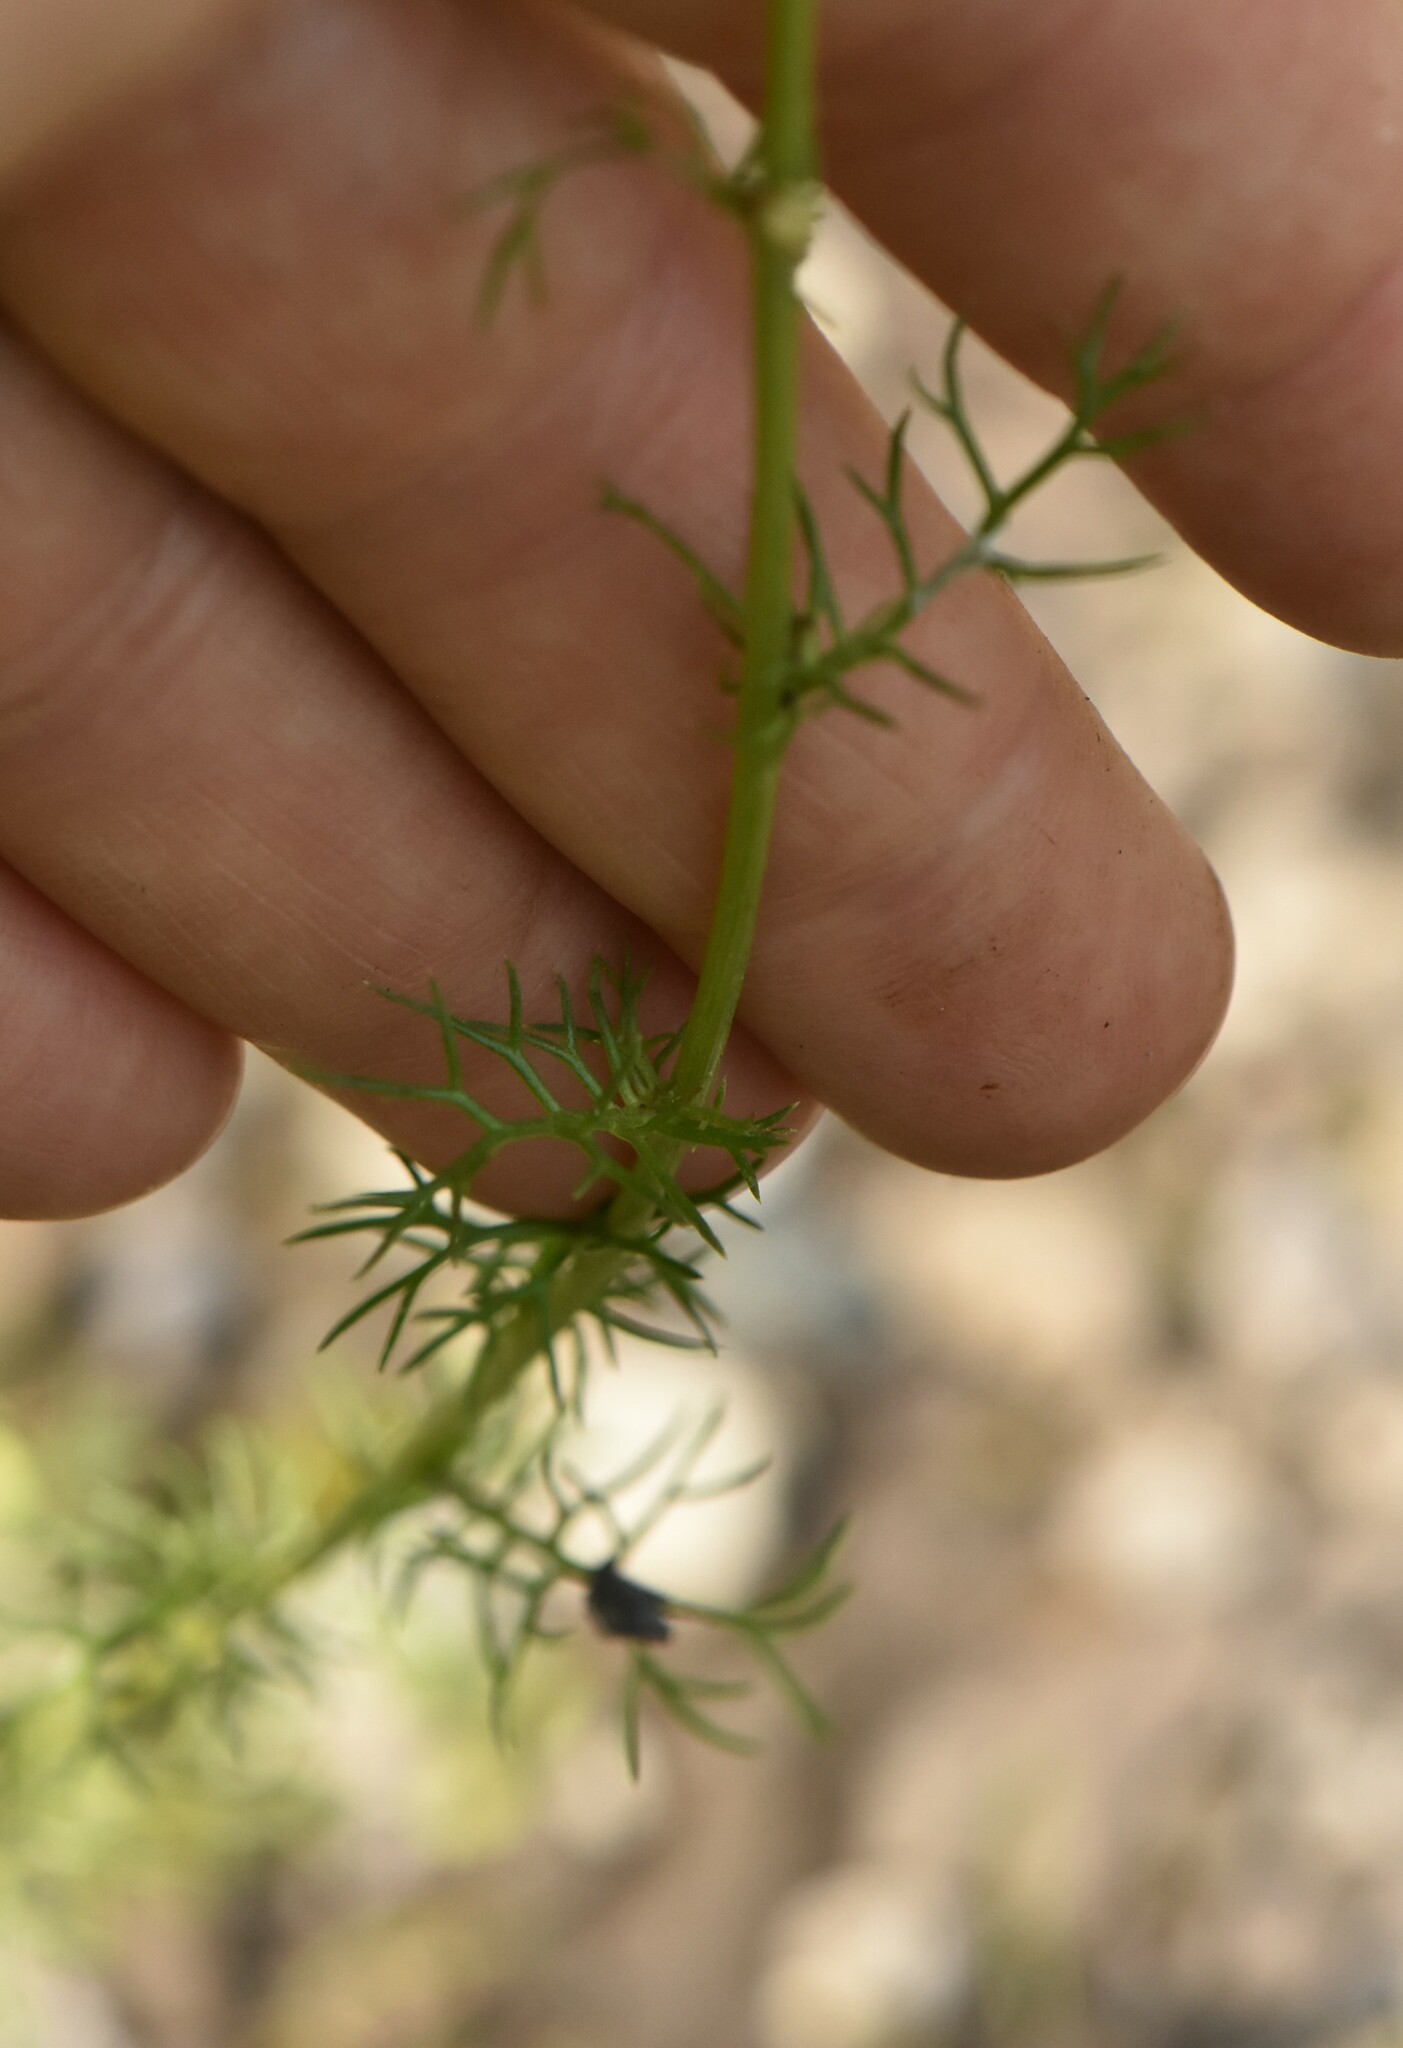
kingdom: Plantae
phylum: Tracheophyta
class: Magnoliopsida
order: Asterales
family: Asteraceae
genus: Tripleurospermum
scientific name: Tripleurospermum inodorum
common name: Scentless mayweed
